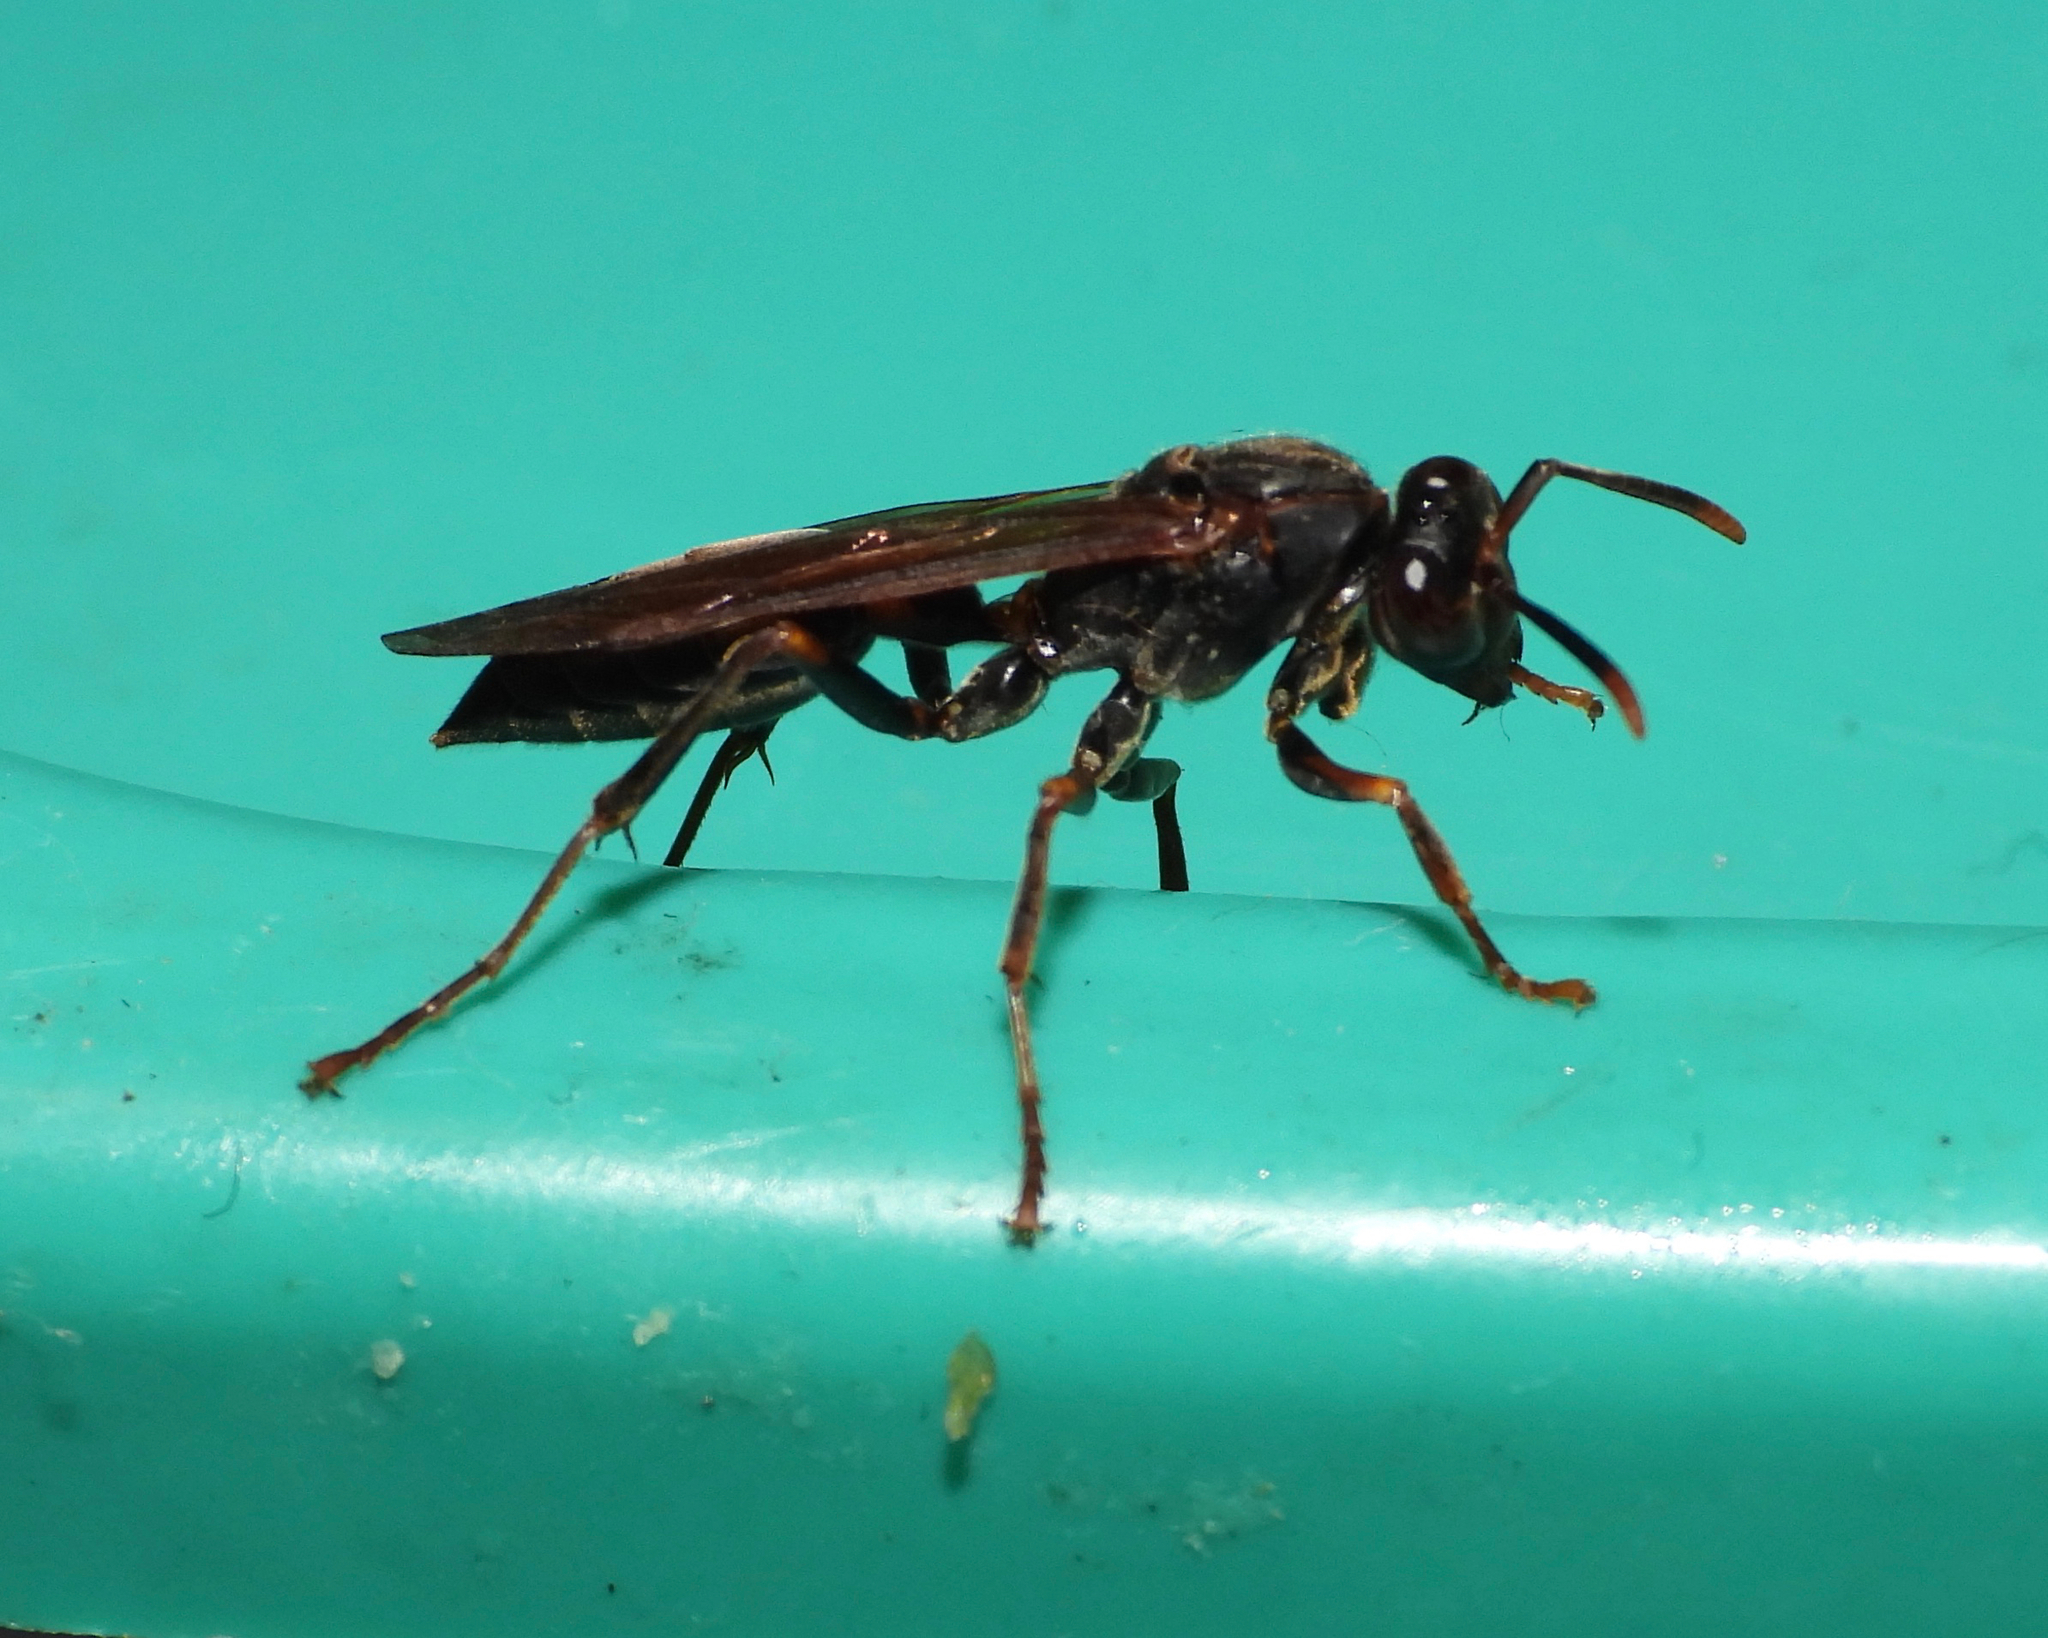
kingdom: Animalia
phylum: Arthropoda
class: Insecta
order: Hymenoptera
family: Eumenidae
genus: Polistes
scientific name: Polistes apicalis
